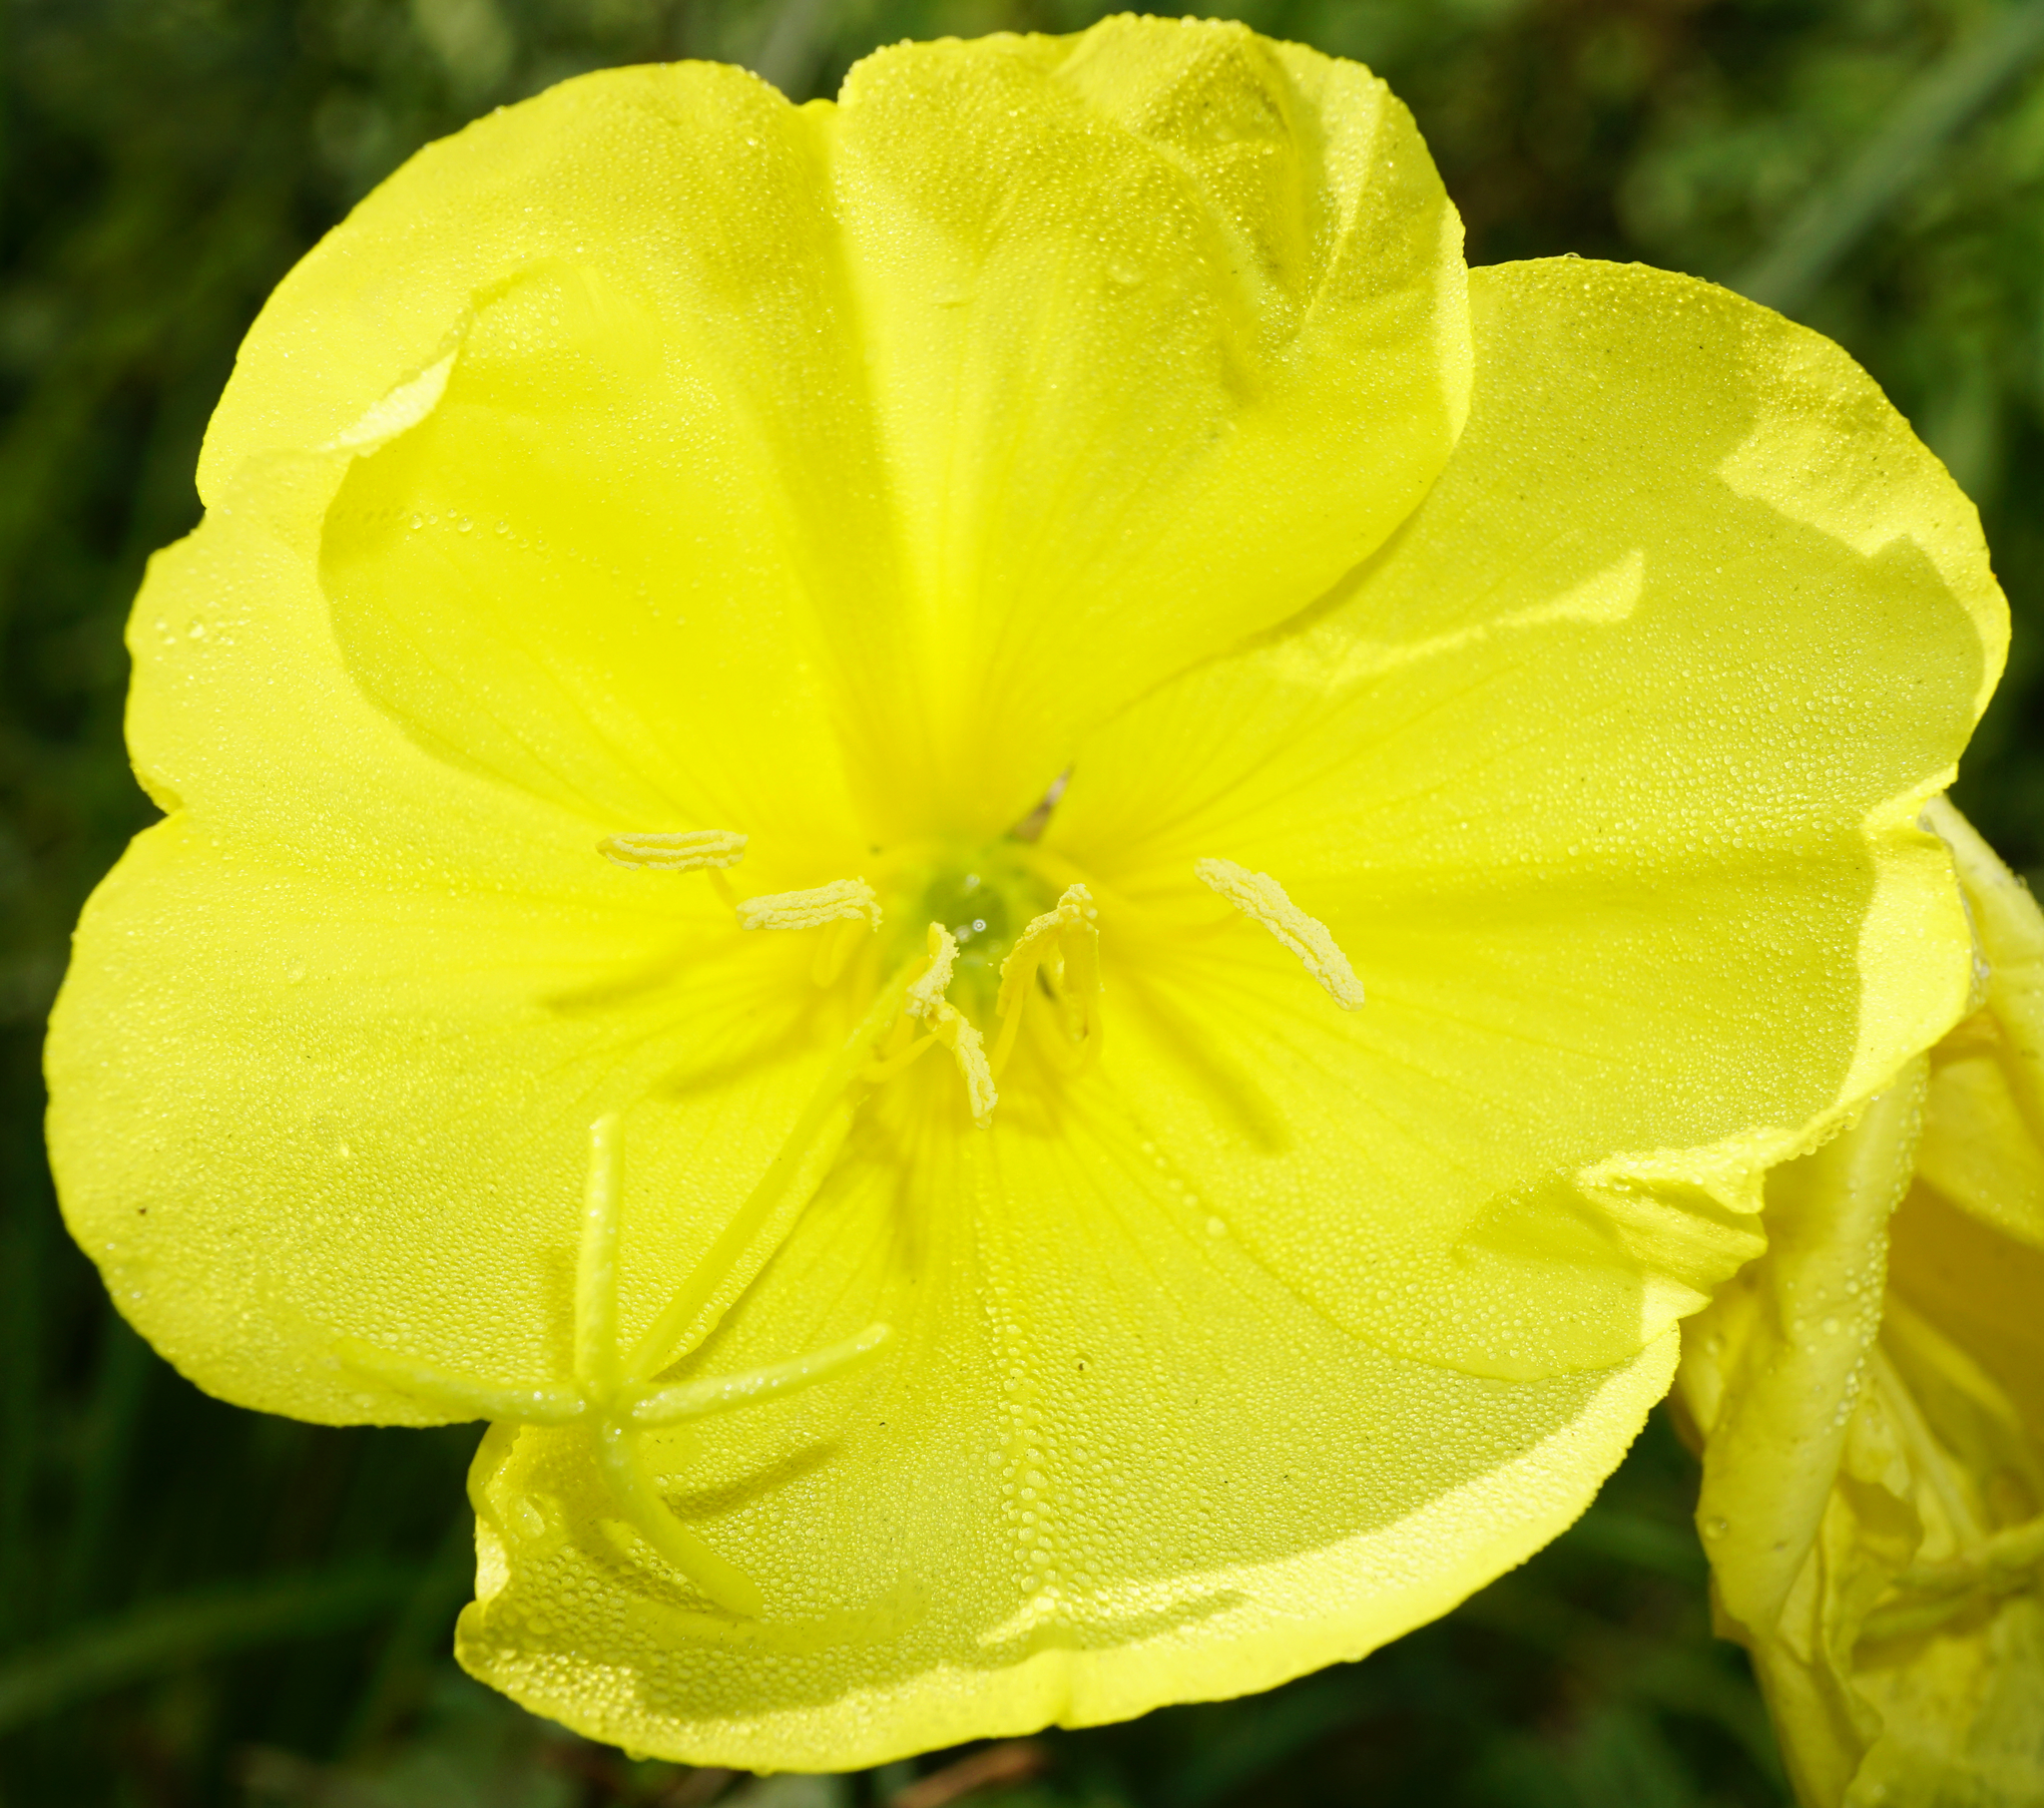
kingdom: Plantae
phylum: Tracheophyta
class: Magnoliopsida
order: Myrtales
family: Onagraceae
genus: Oenothera
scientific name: Oenothera glazioviana
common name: Large-flowered evening-primrose
